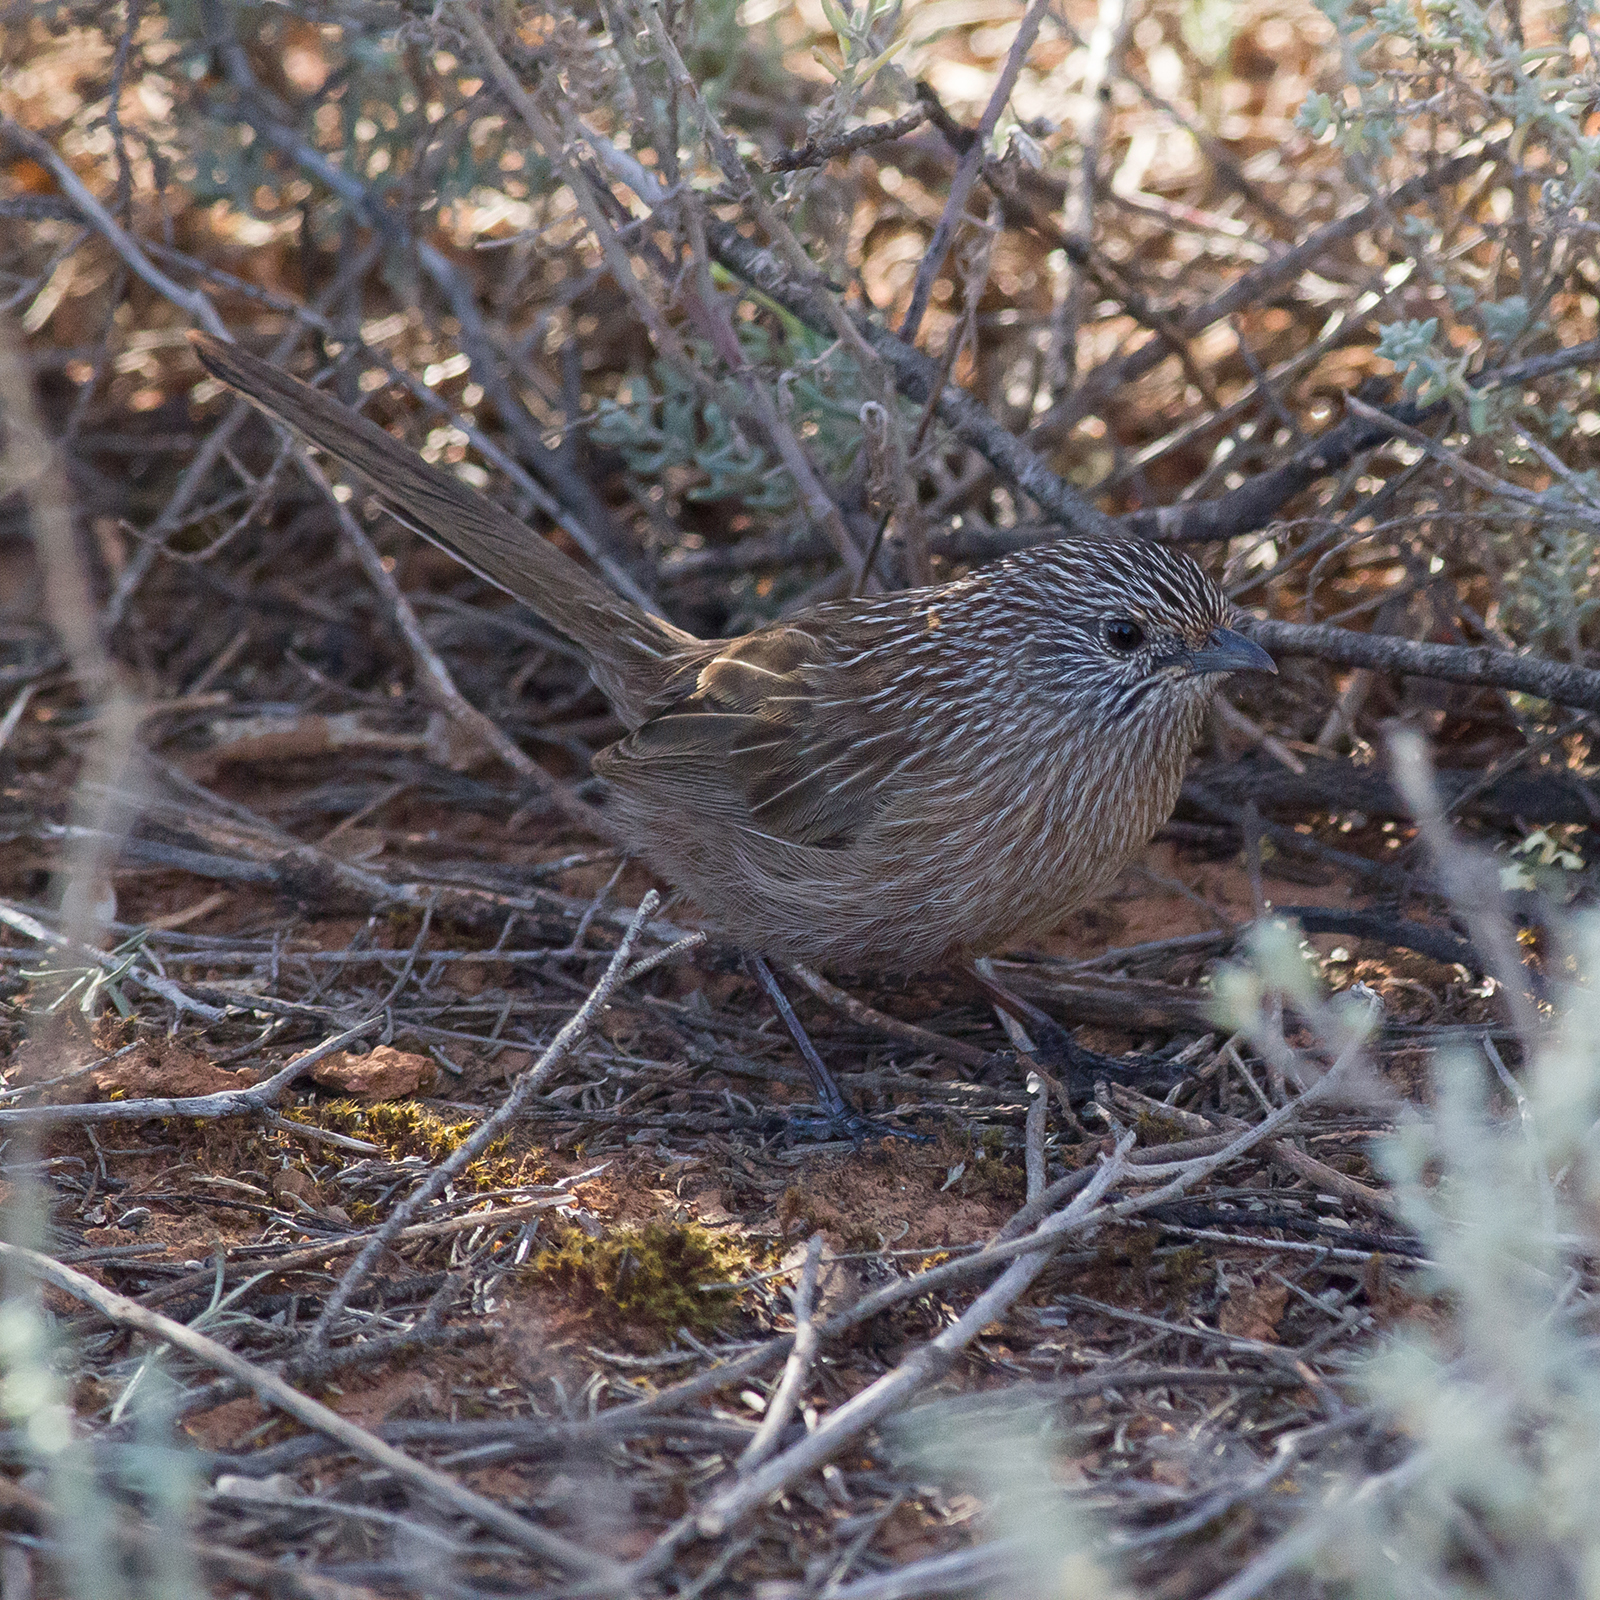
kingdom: Animalia
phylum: Chordata
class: Aves
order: Passeriformes
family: Maluridae
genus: Amytornis
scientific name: Amytornis textilis
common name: Western grasswren
